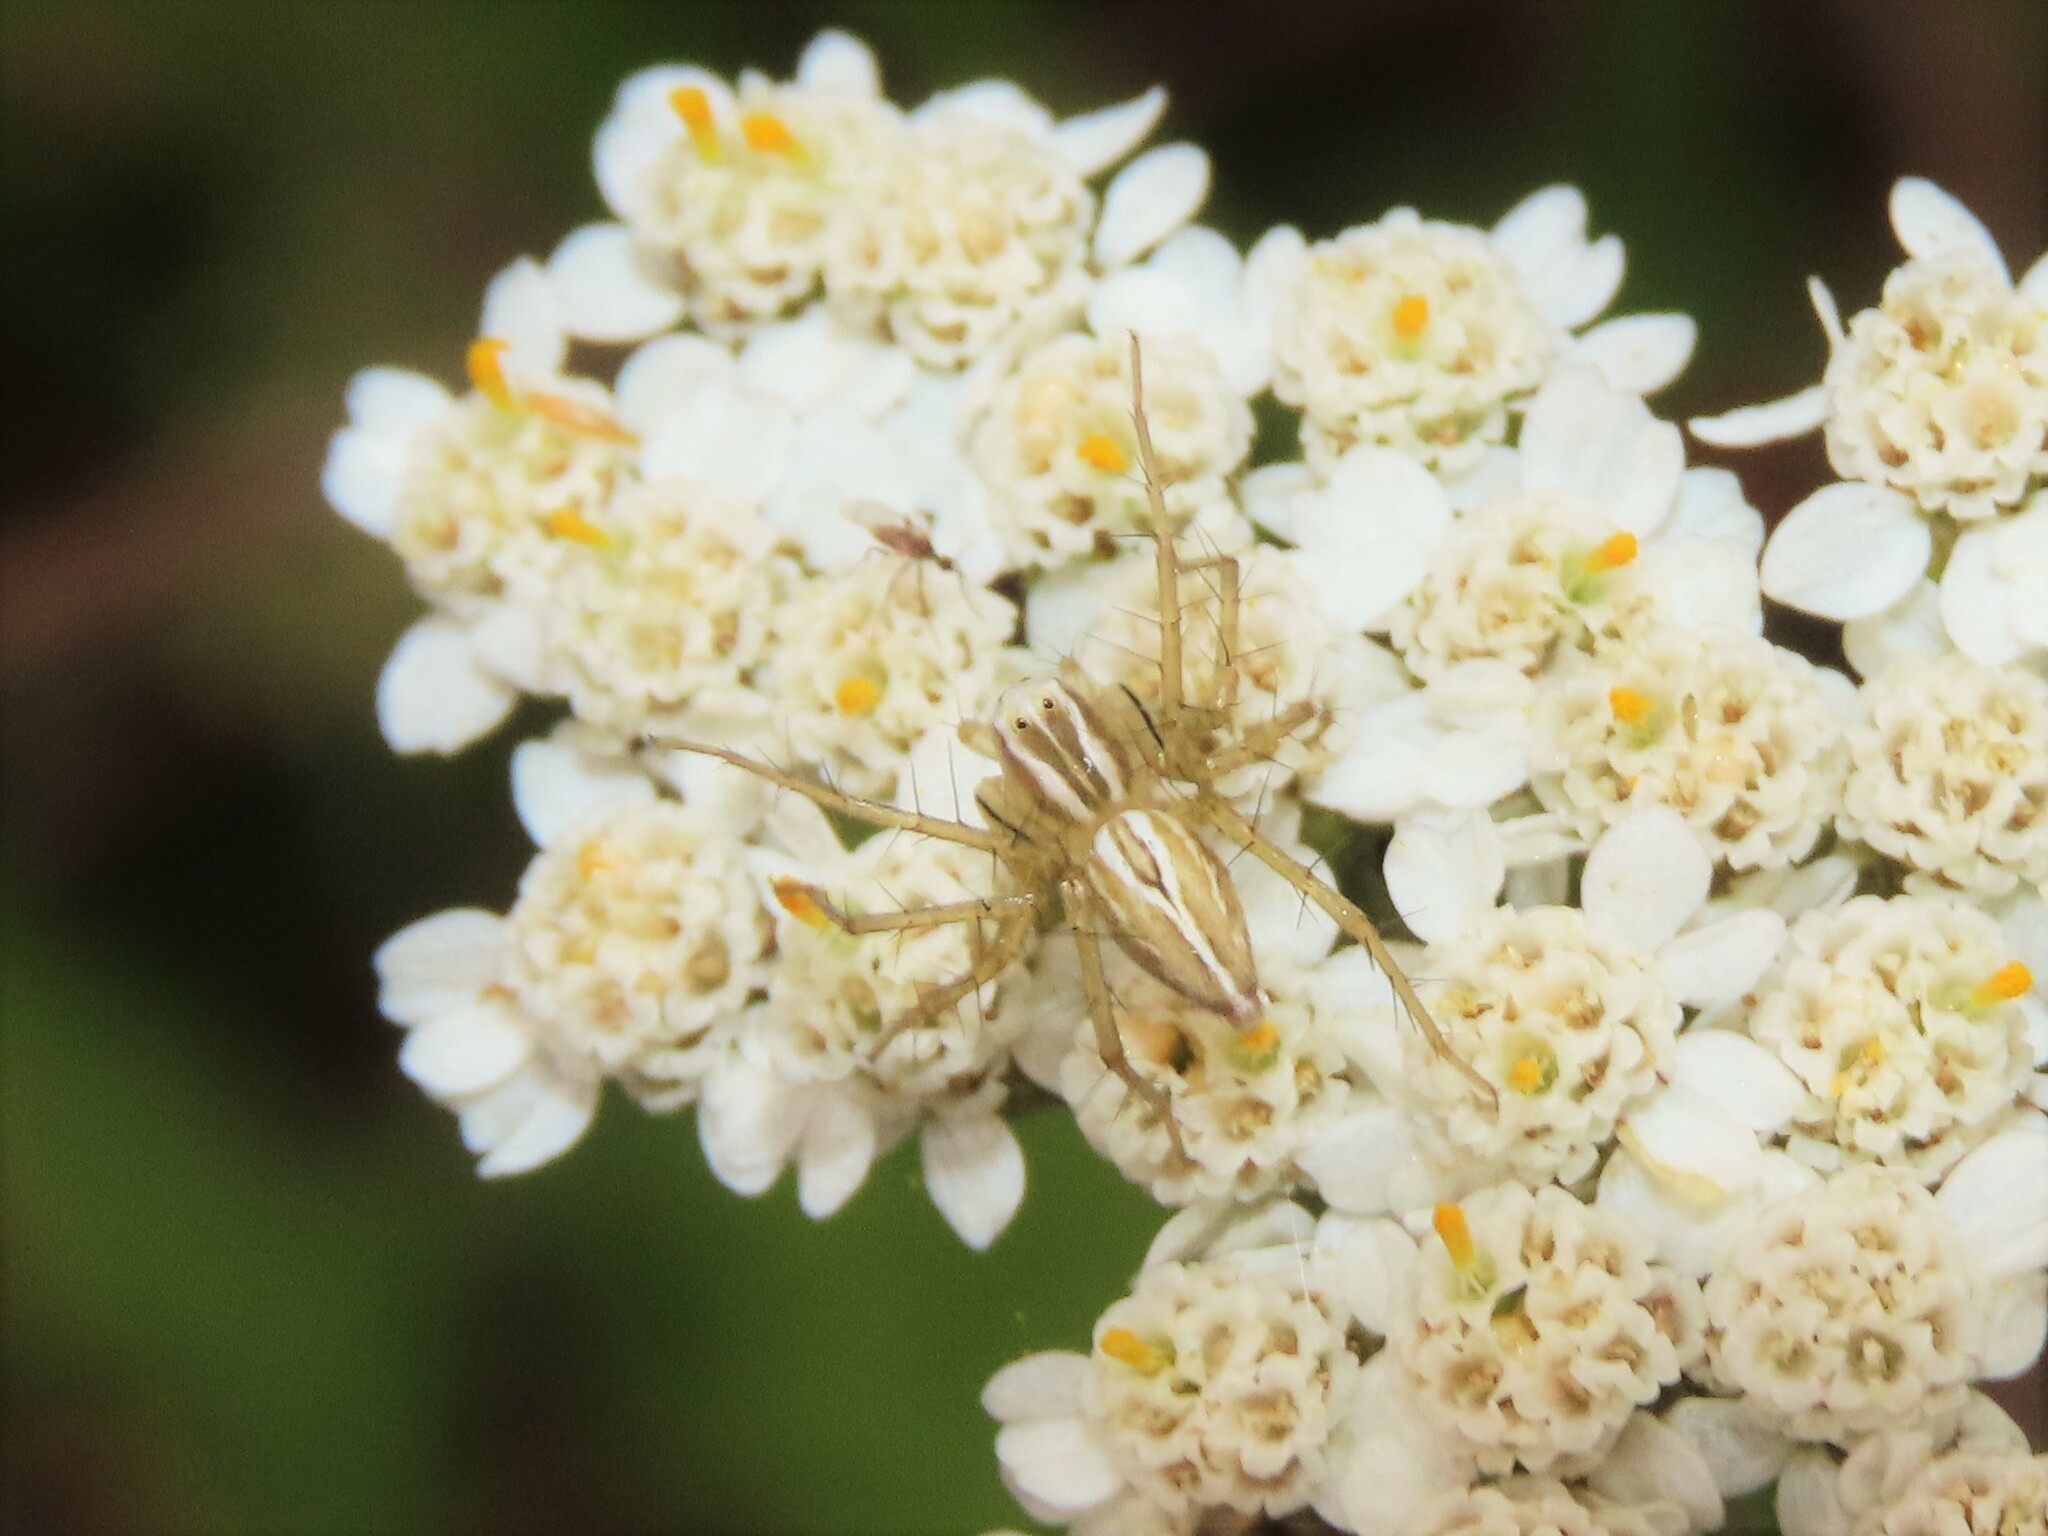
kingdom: Animalia
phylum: Arthropoda
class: Arachnida
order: Araneae
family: Oxyopidae
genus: Oxyopes
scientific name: Oxyopes salticus
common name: Lynx spiders
